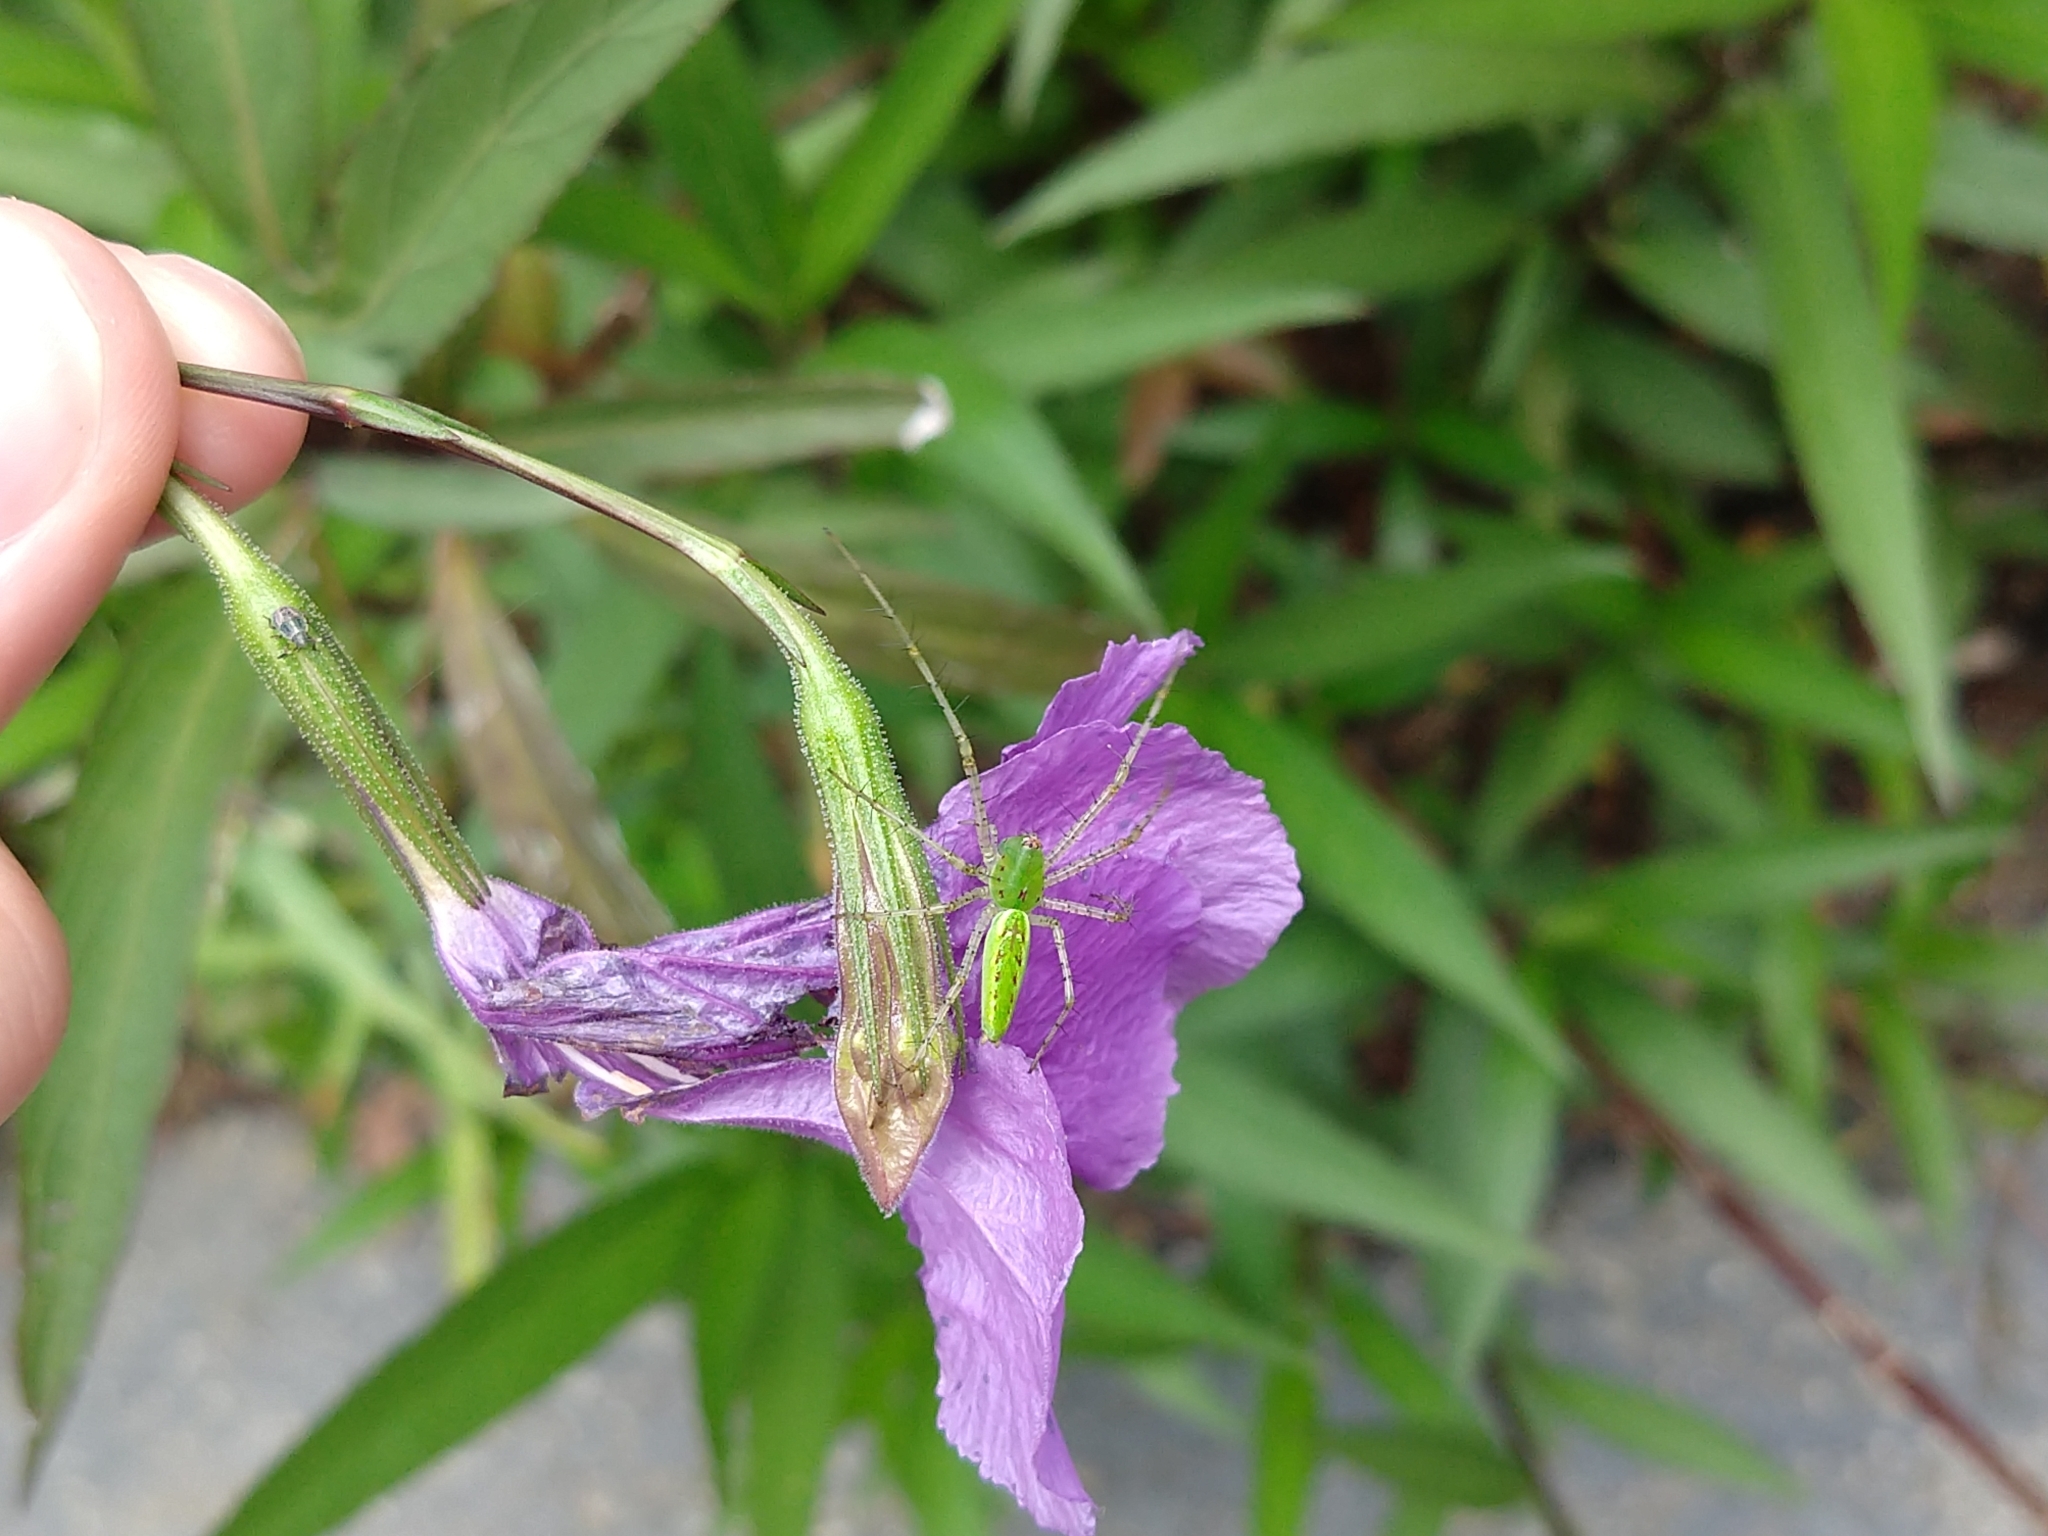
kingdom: Animalia
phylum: Arthropoda
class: Arachnida
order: Araneae
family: Oxyopidae
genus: Peucetia
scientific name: Peucetia viridans
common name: Lynx spiders
